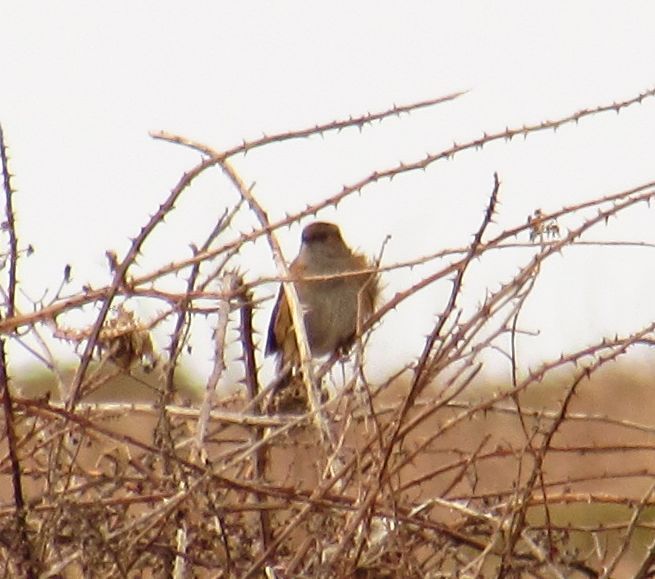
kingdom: Animalia
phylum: Chordata
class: Aves
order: Passeriformes
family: Prunellidae
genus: Prunella
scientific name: Prunella modularis
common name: Dunnock
